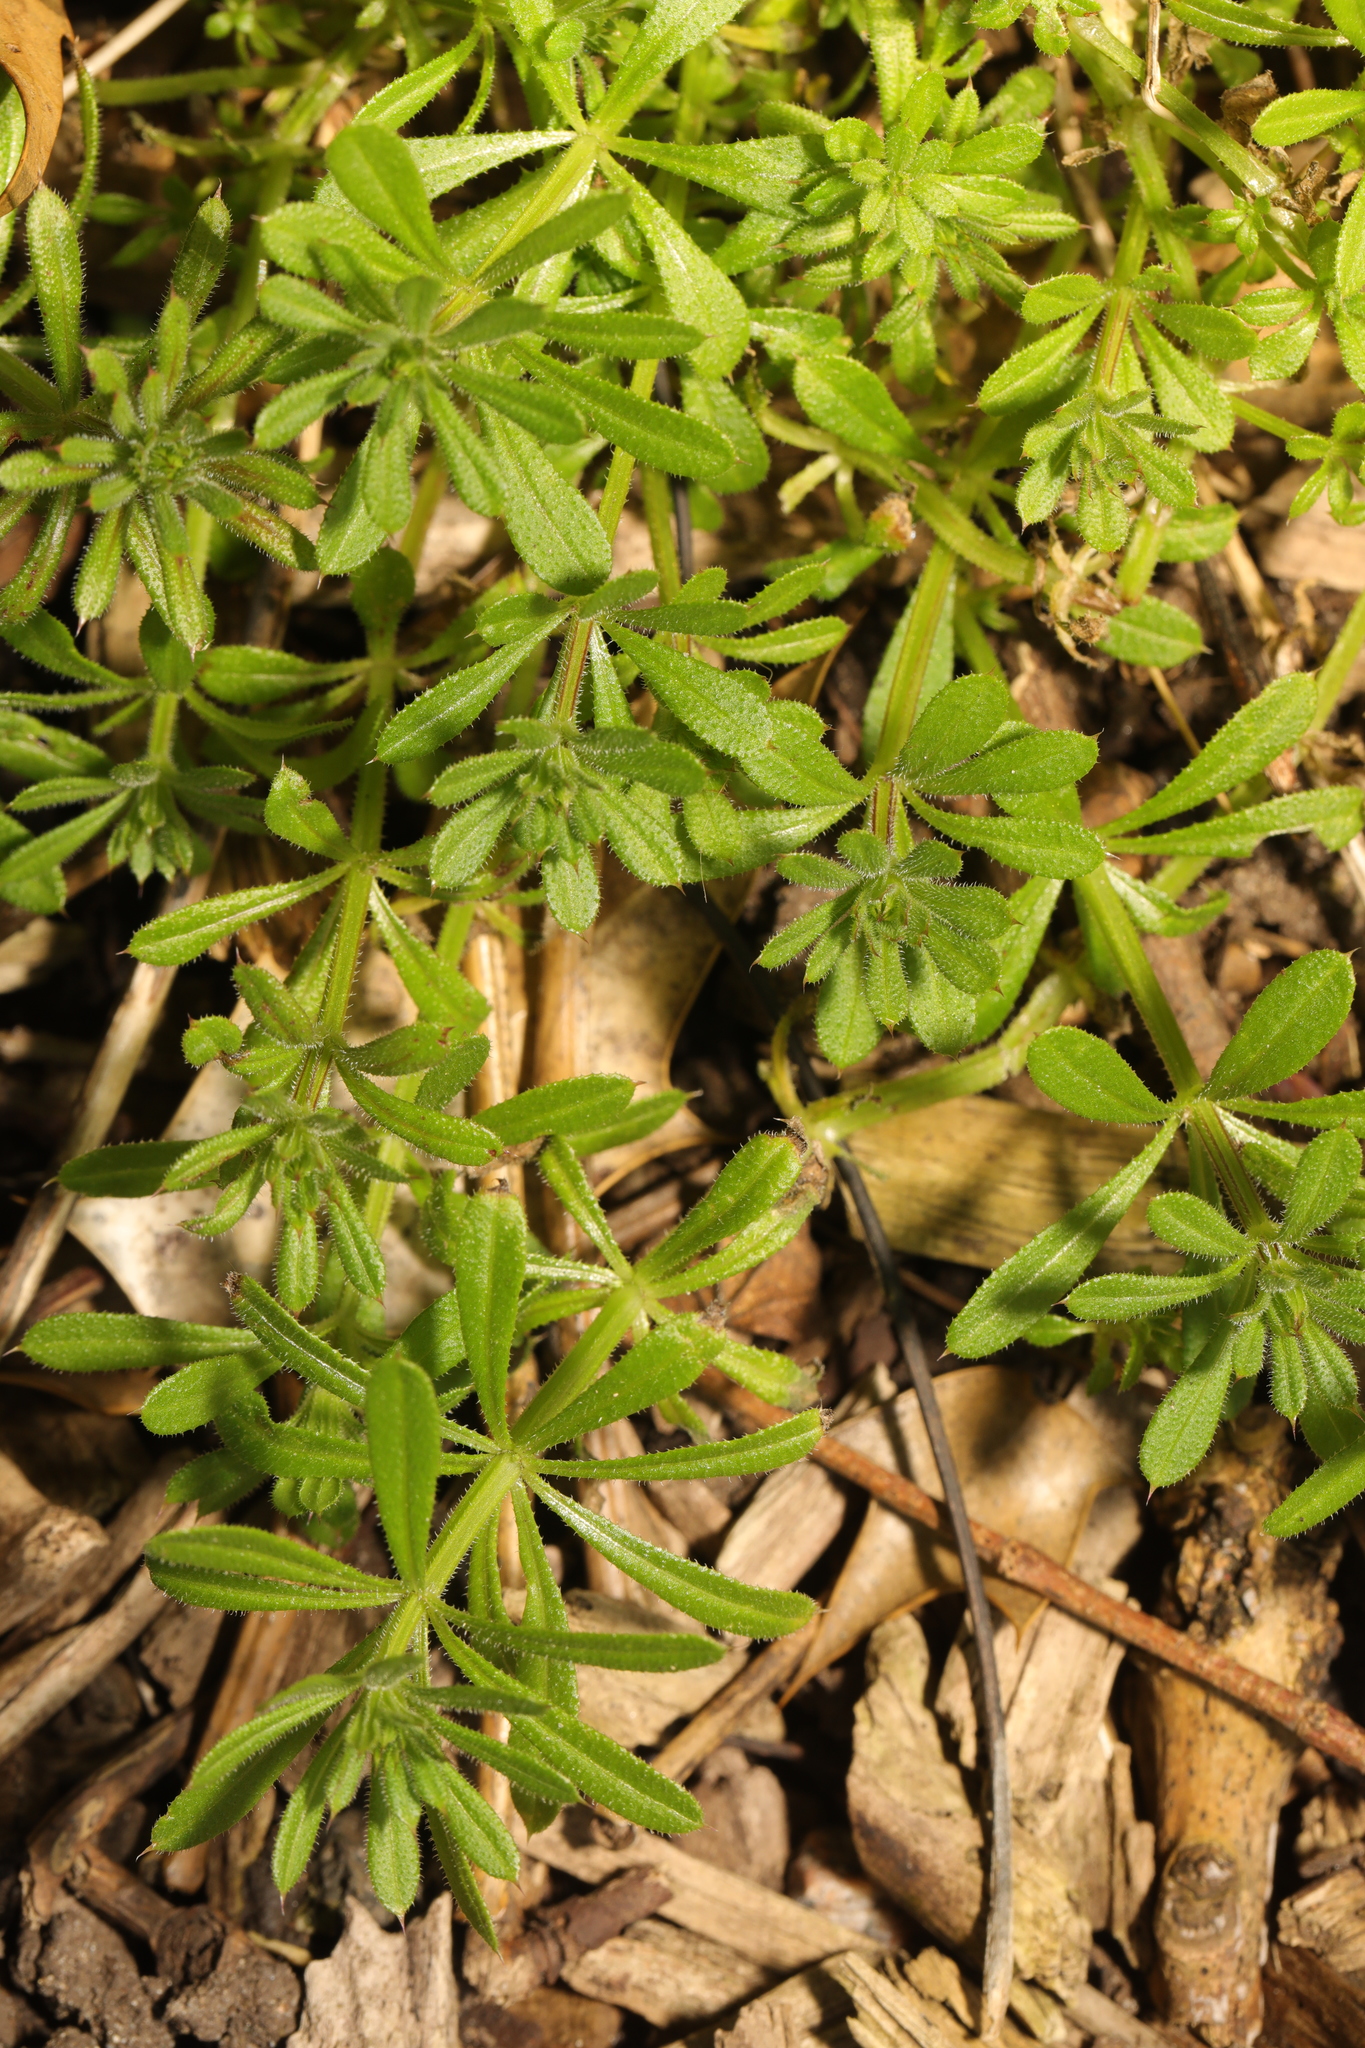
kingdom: Plantae
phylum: Tracheophyta
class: Magnoliopsida
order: Gentianales
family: Rubiaceae
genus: Galium
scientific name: Galium aparine
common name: Cleavers
